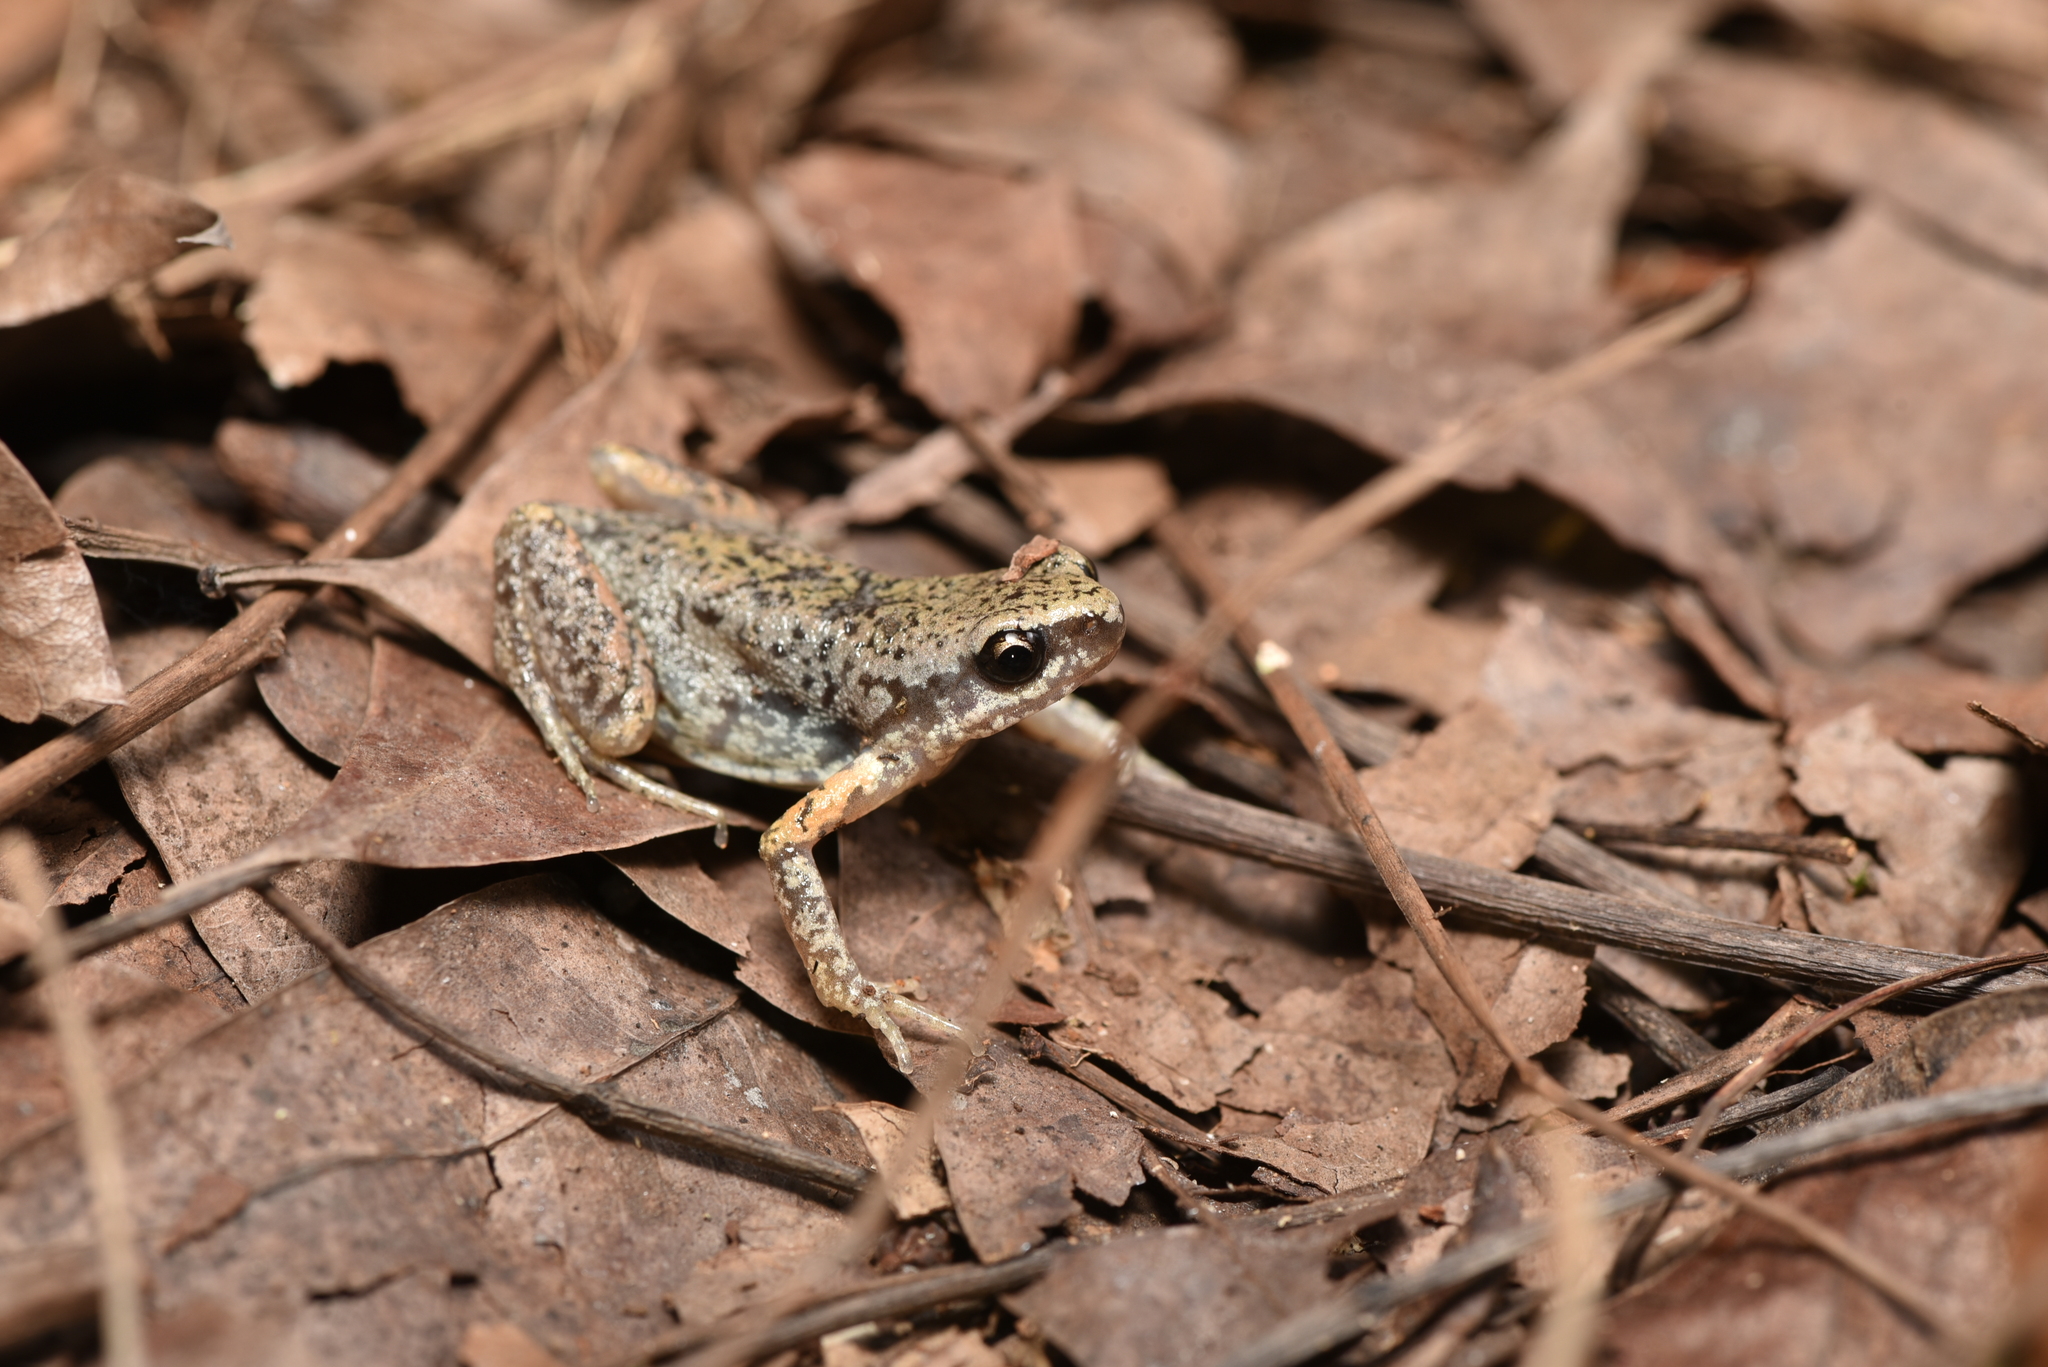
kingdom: Animalia
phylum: Chordata
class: Amphibia
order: Anura
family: Microhylidae
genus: Micryletta
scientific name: Micryletta steinegeri
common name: Stejneger's paddy frog
